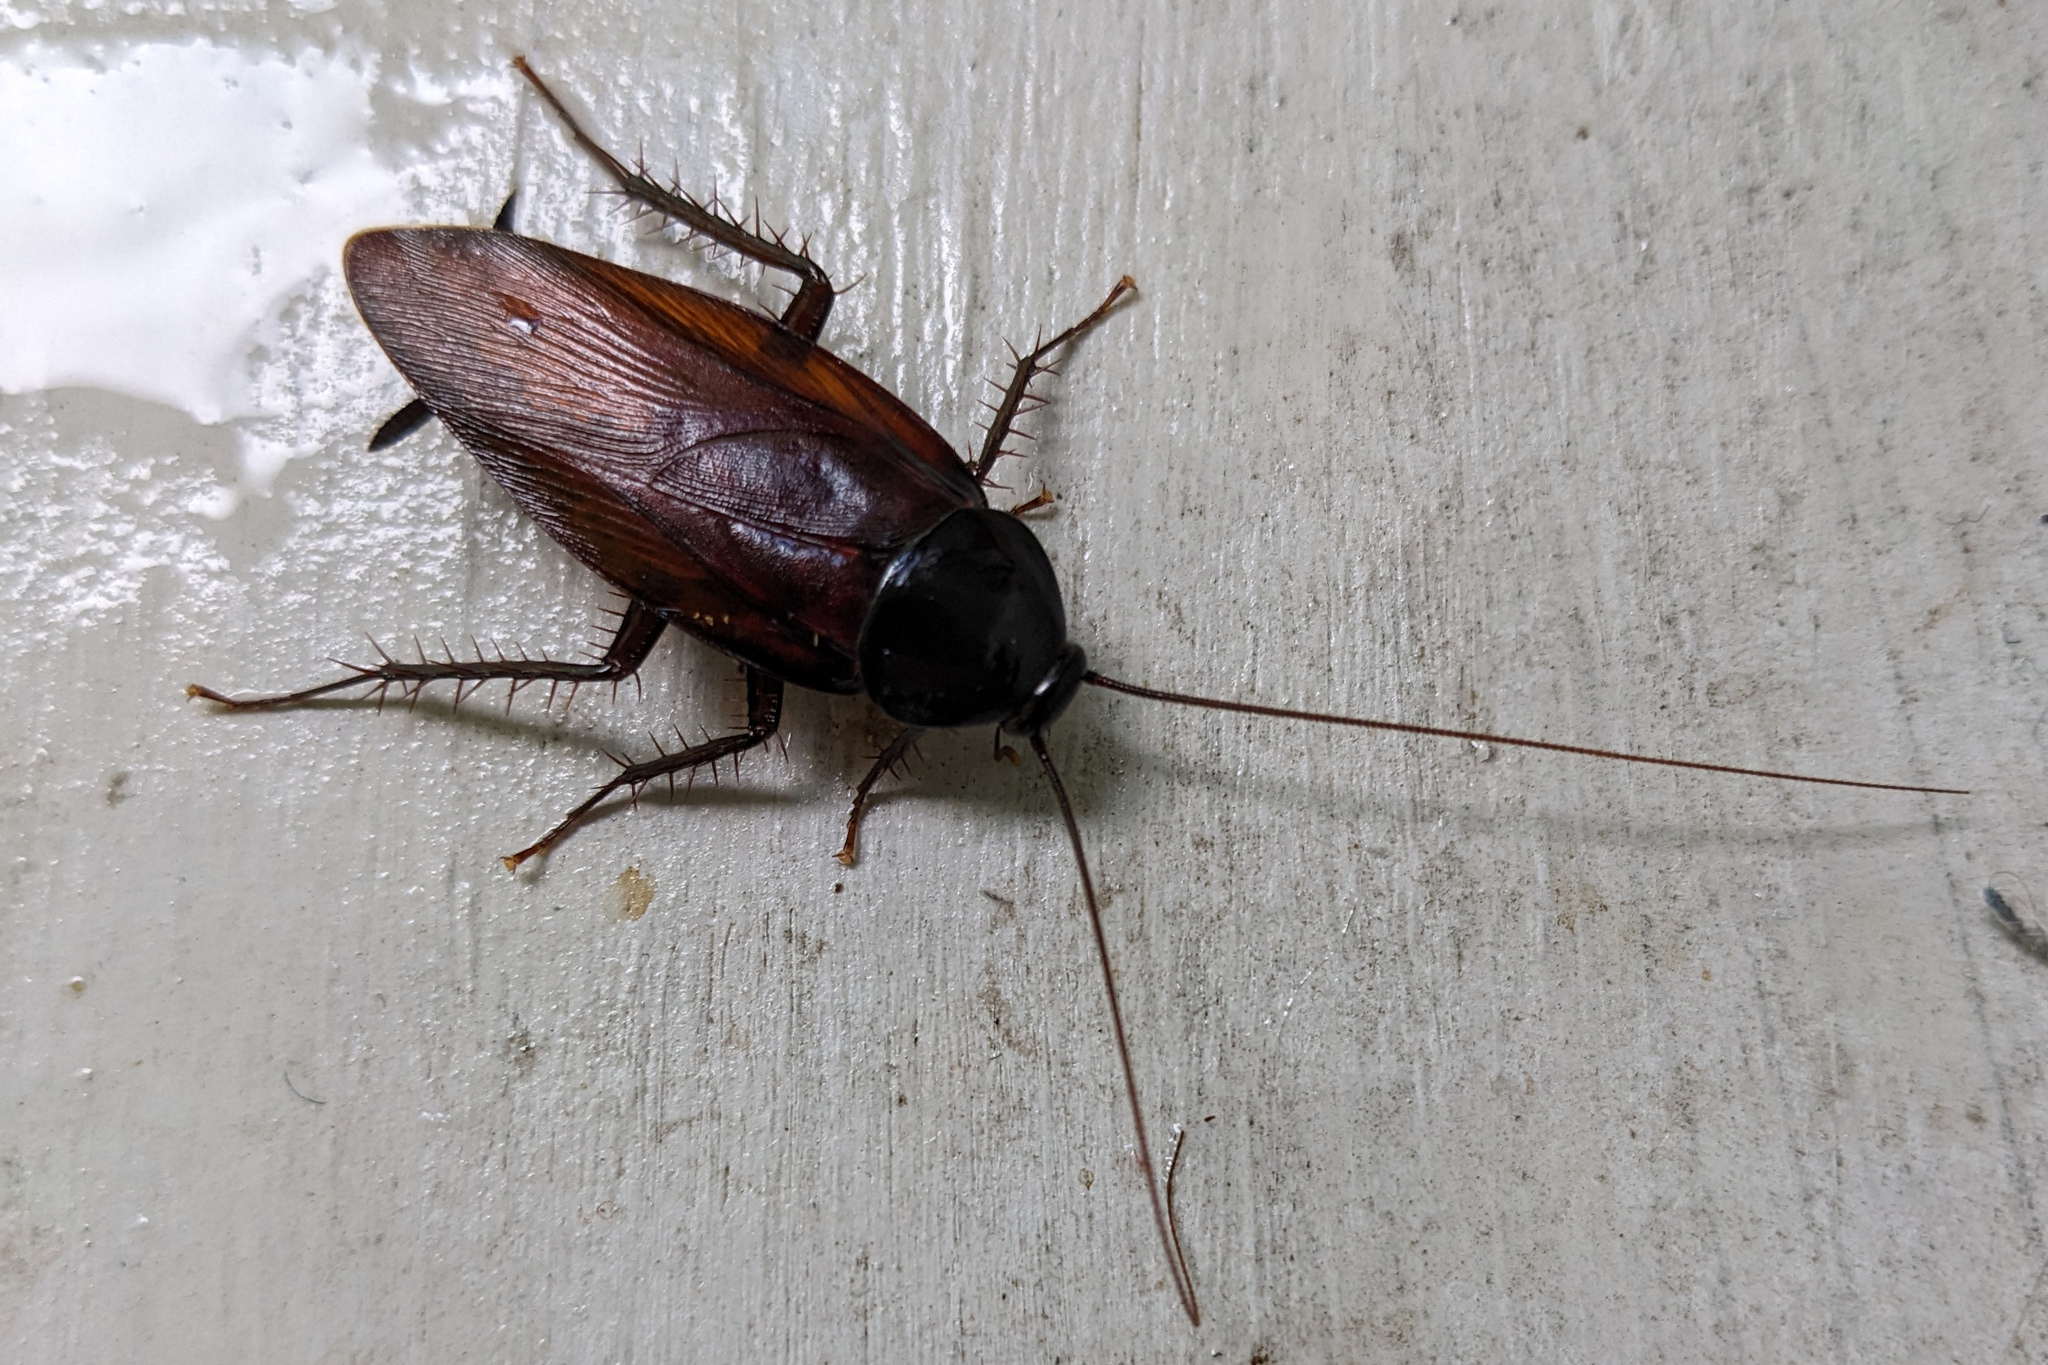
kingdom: Animalia
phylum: Arthropoda
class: Insecta
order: Blattodea
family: Blattidae
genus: Periplaneta
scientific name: Periplaneta fuliginosa
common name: Smokeybrown cockroad
